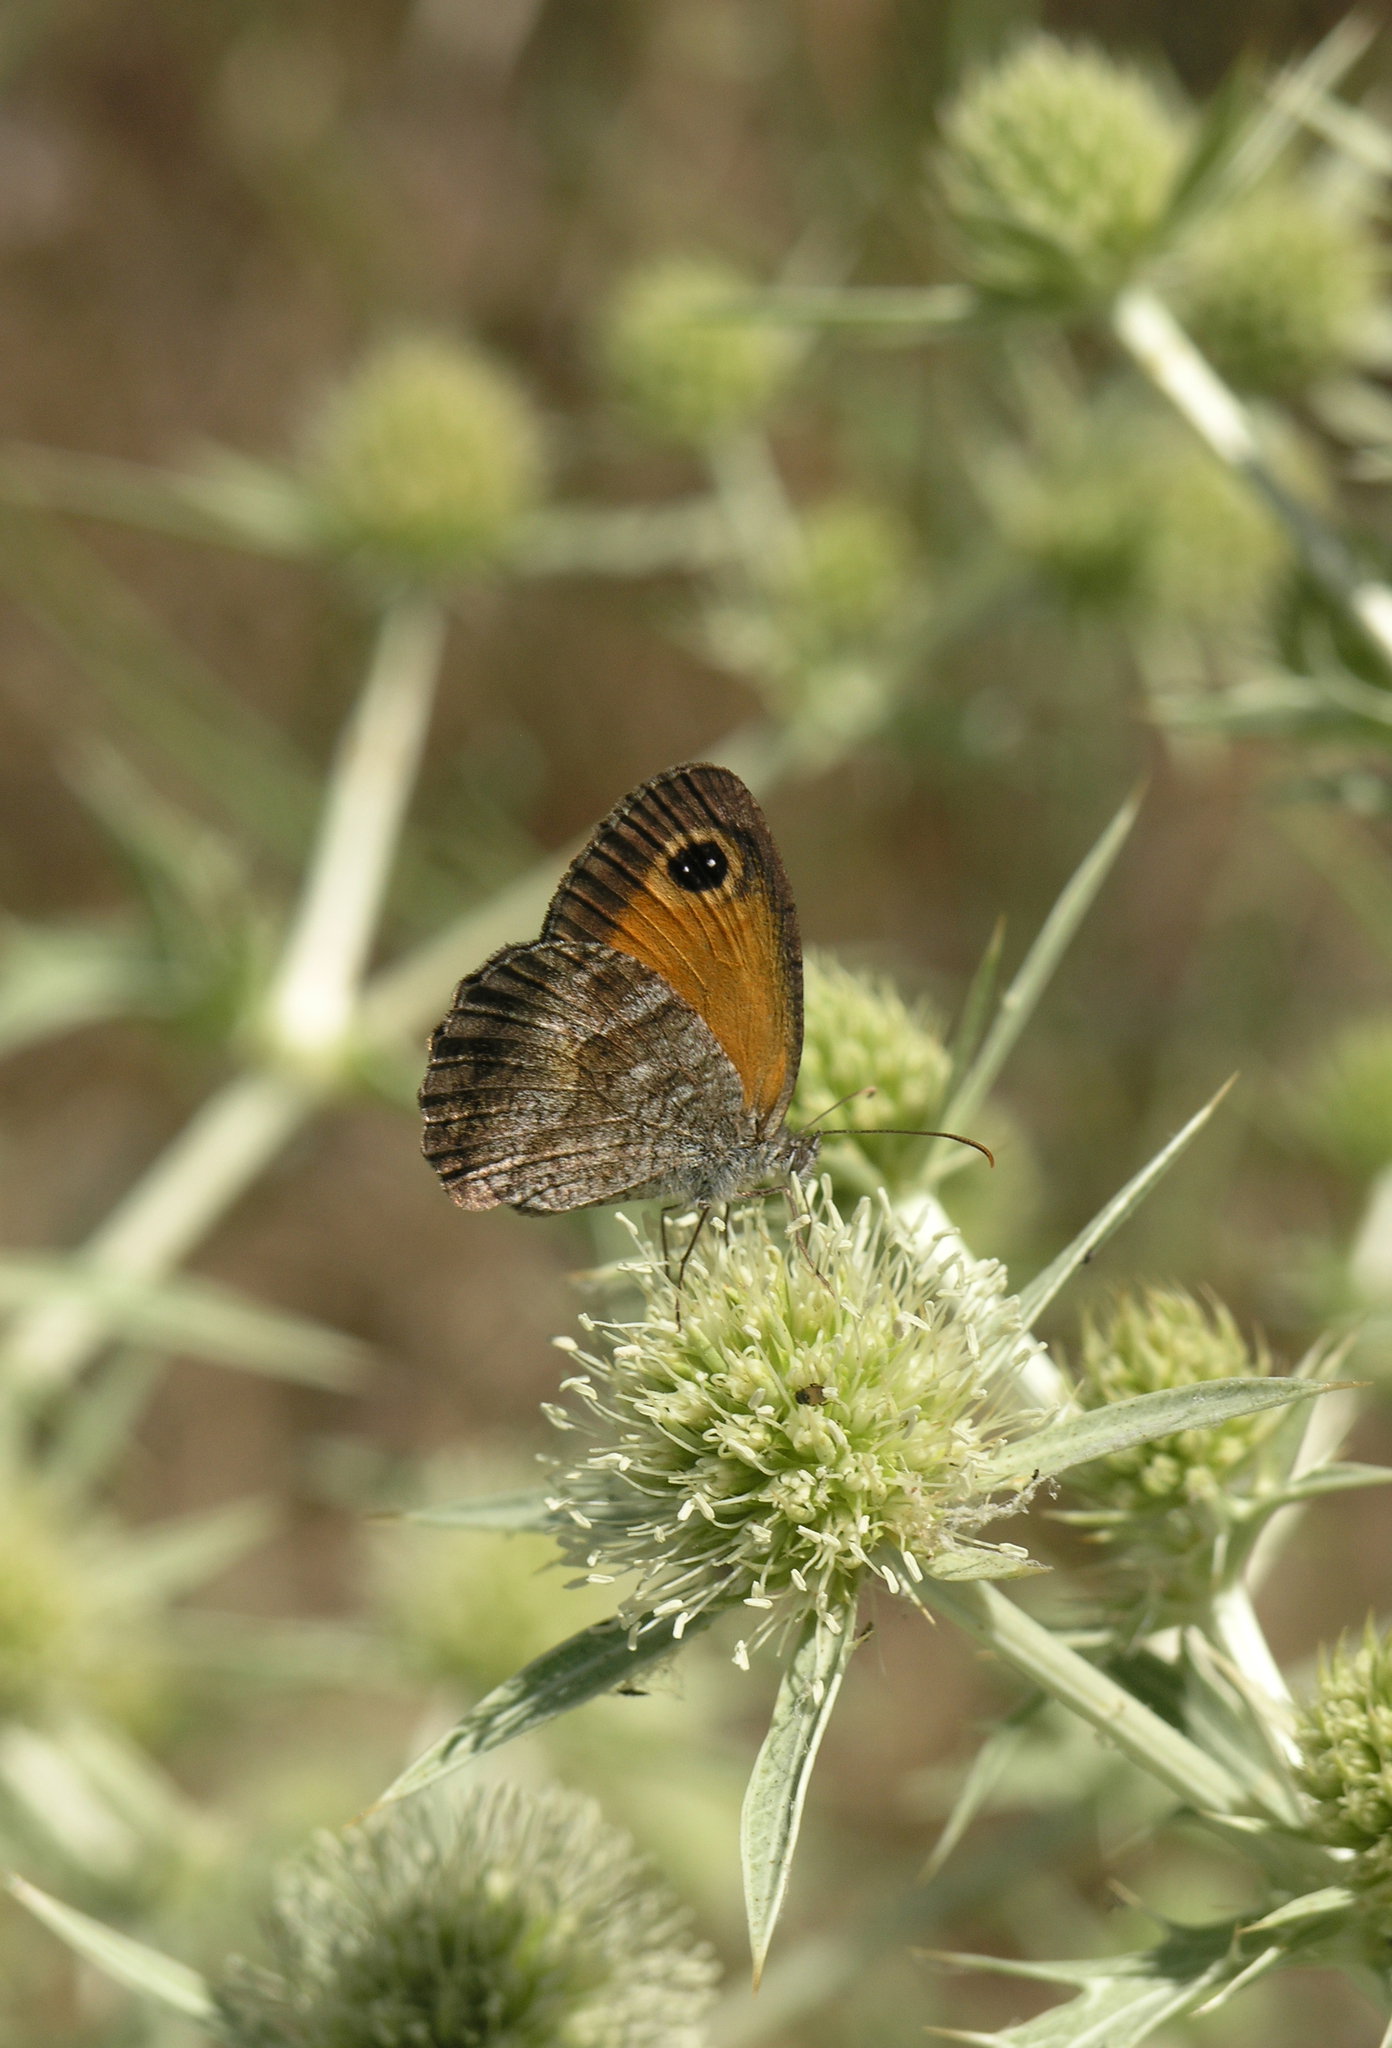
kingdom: Plantae
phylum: Tracheophyta
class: Magnoliopsida
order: Apiales
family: Apiaceae
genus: Eryngium
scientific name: Eryngium campestre
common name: Field eryngo
